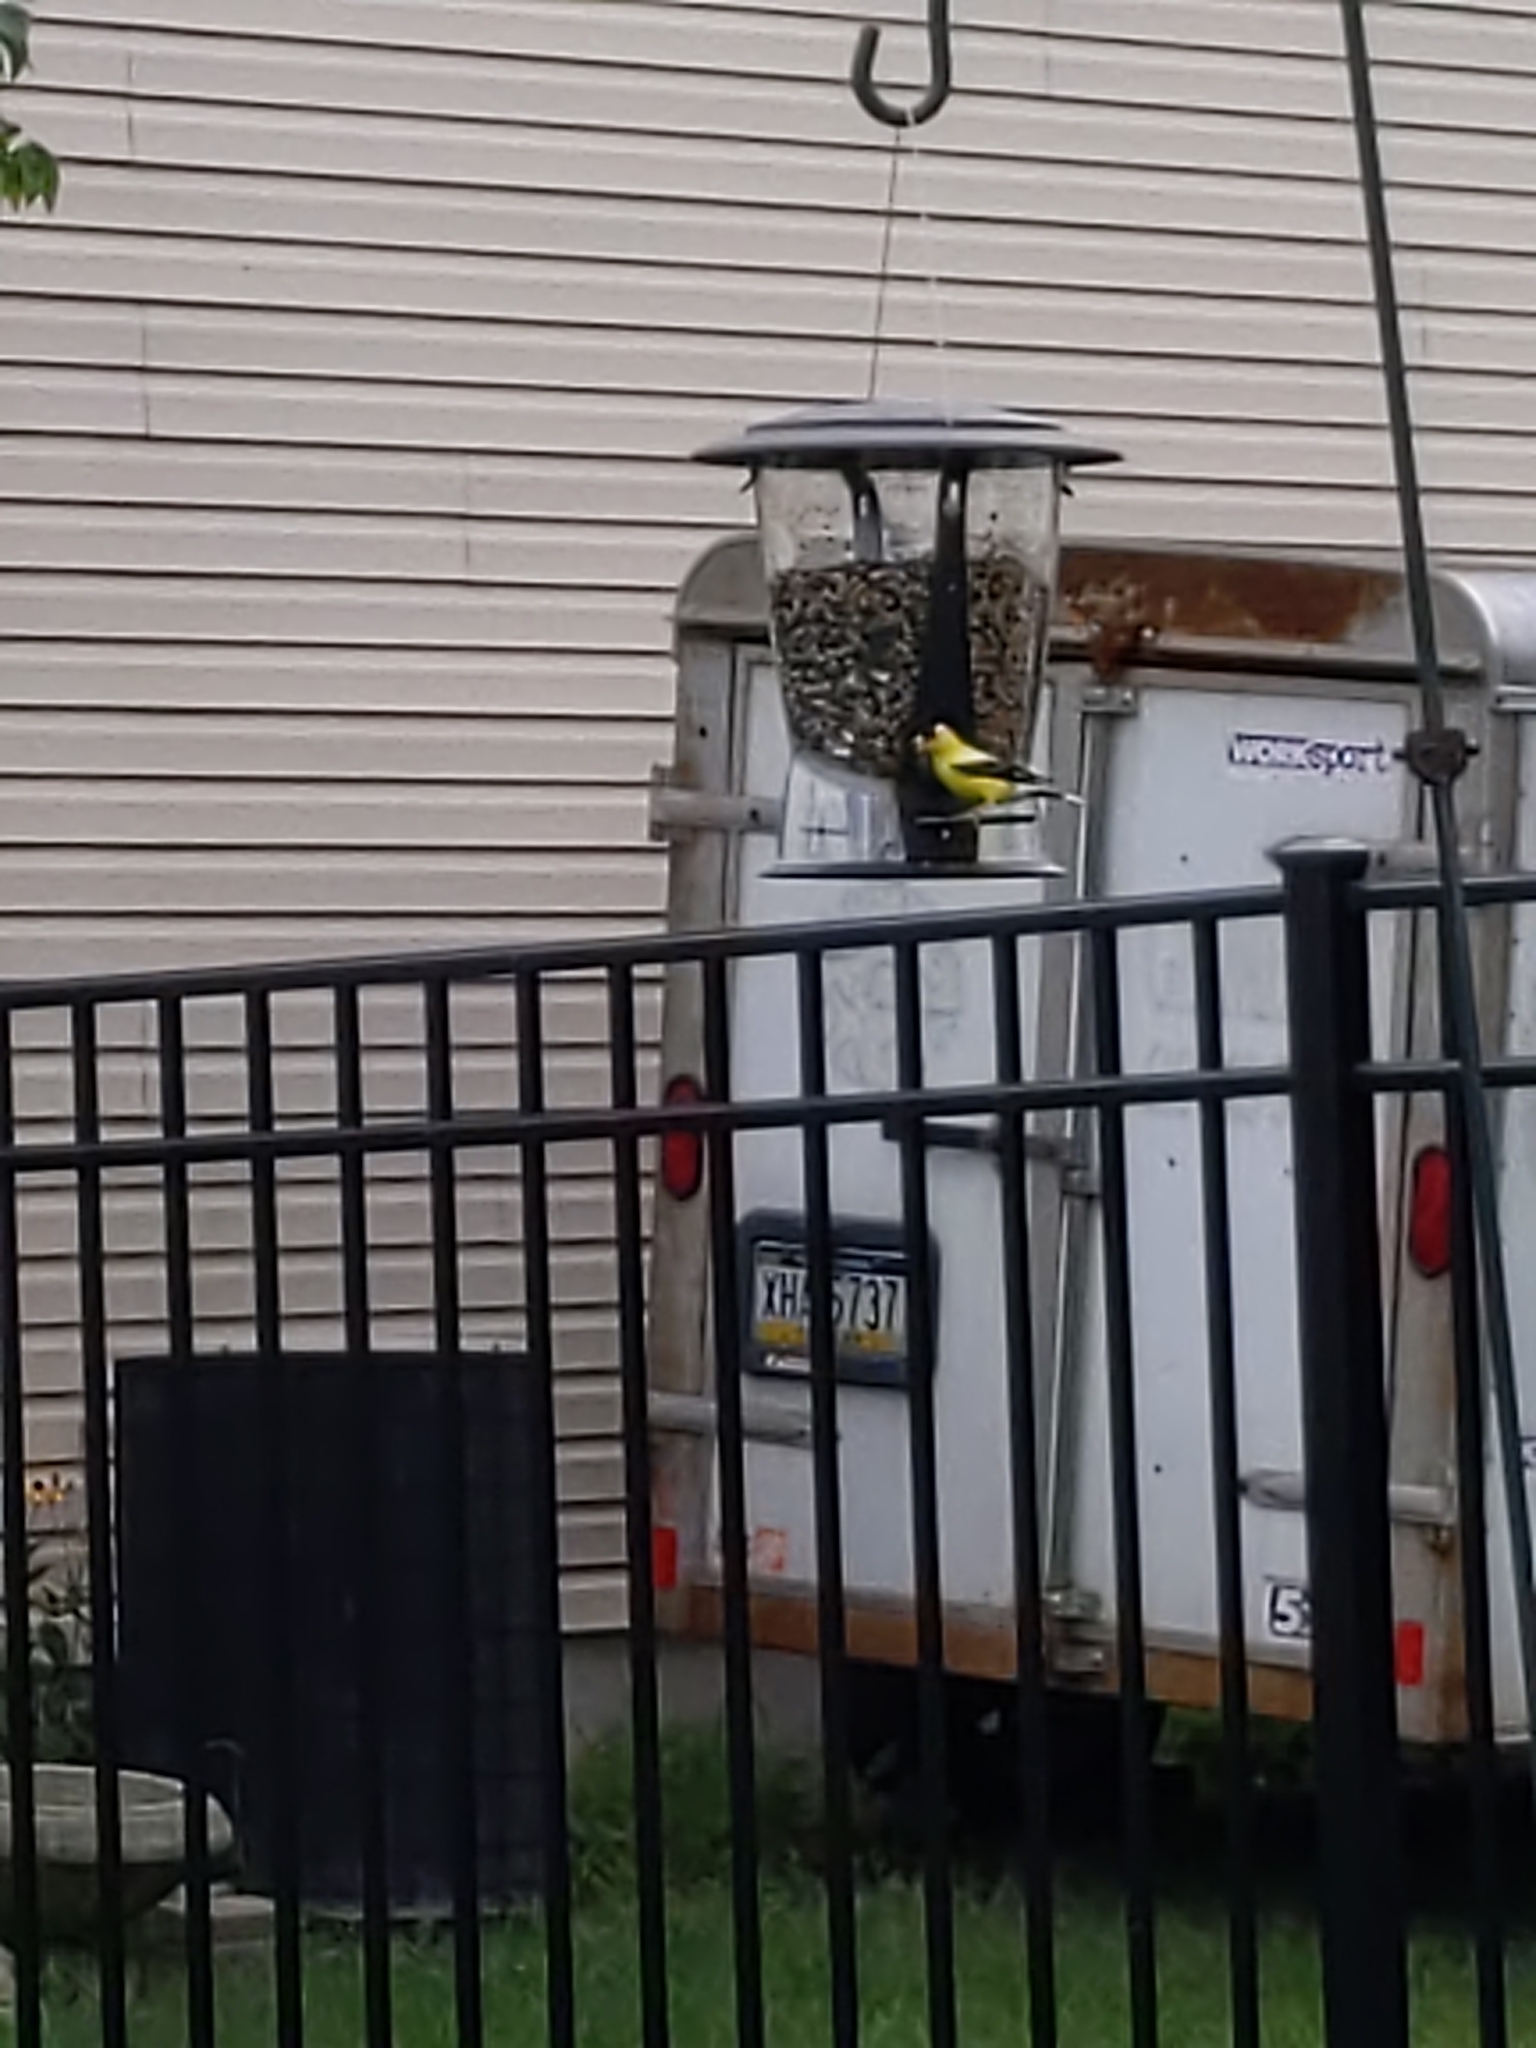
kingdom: Animalia
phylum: Chordata
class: Aves
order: Passeriformes
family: Fringillidae
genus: Spinus
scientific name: Spinus tristis
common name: American goldfinch
